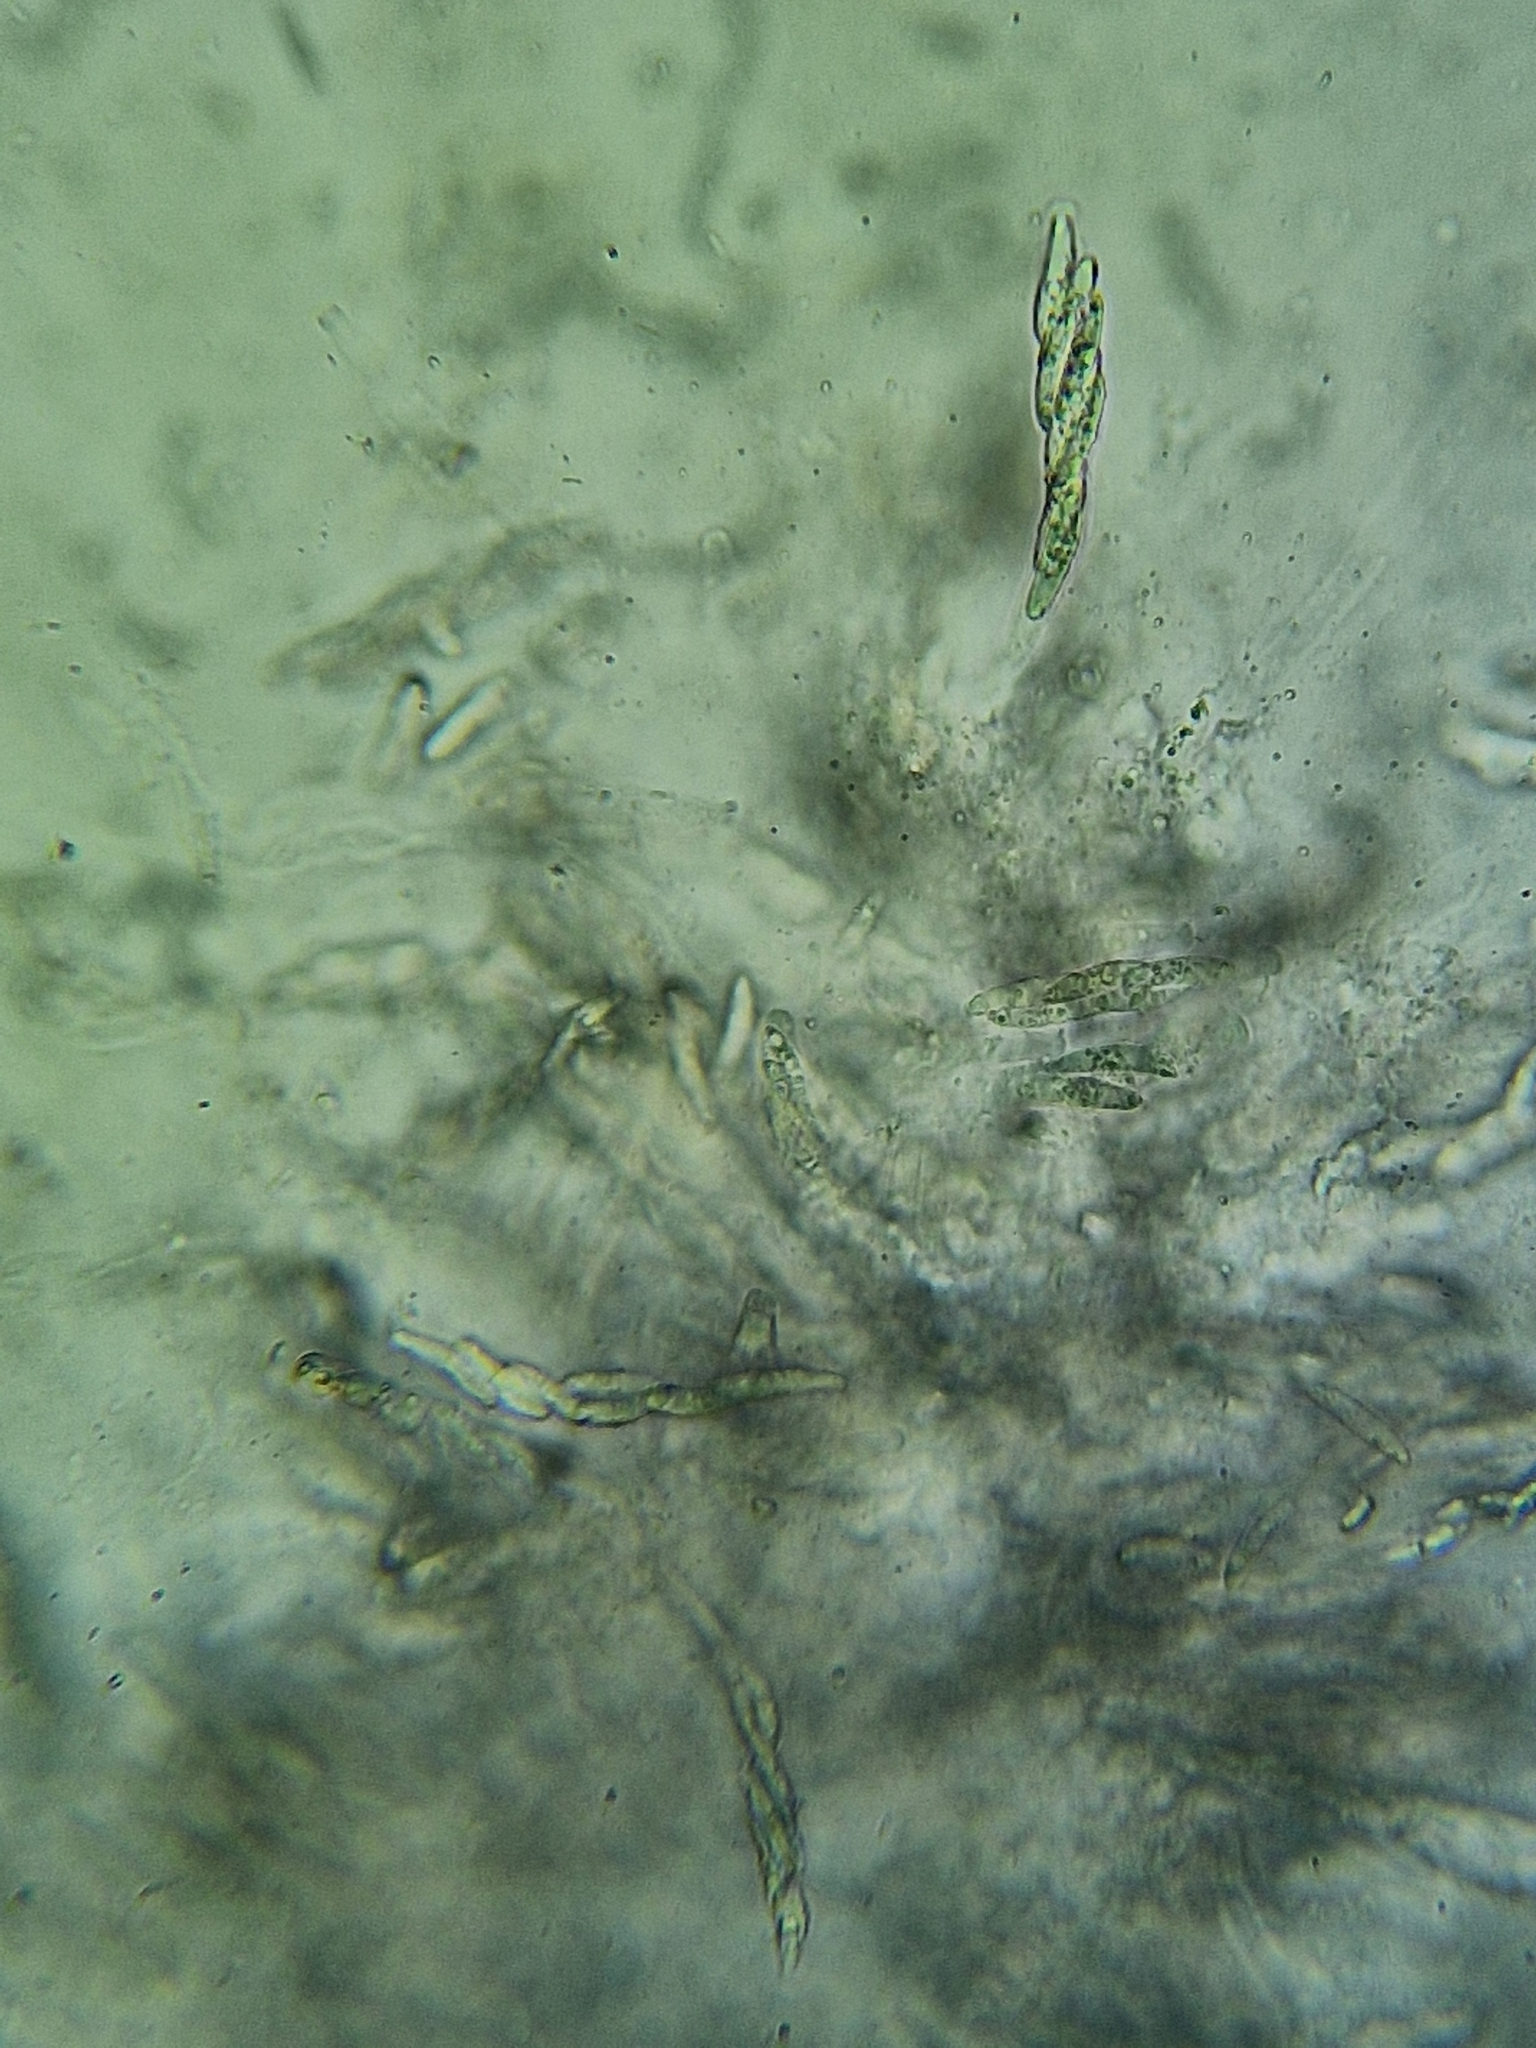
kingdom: Fungi
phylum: Ascomycota
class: Sordariomycetes
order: Hypocreales
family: Nectriaceae
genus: Hydropisphaera
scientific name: Hydropisphaera arenula
